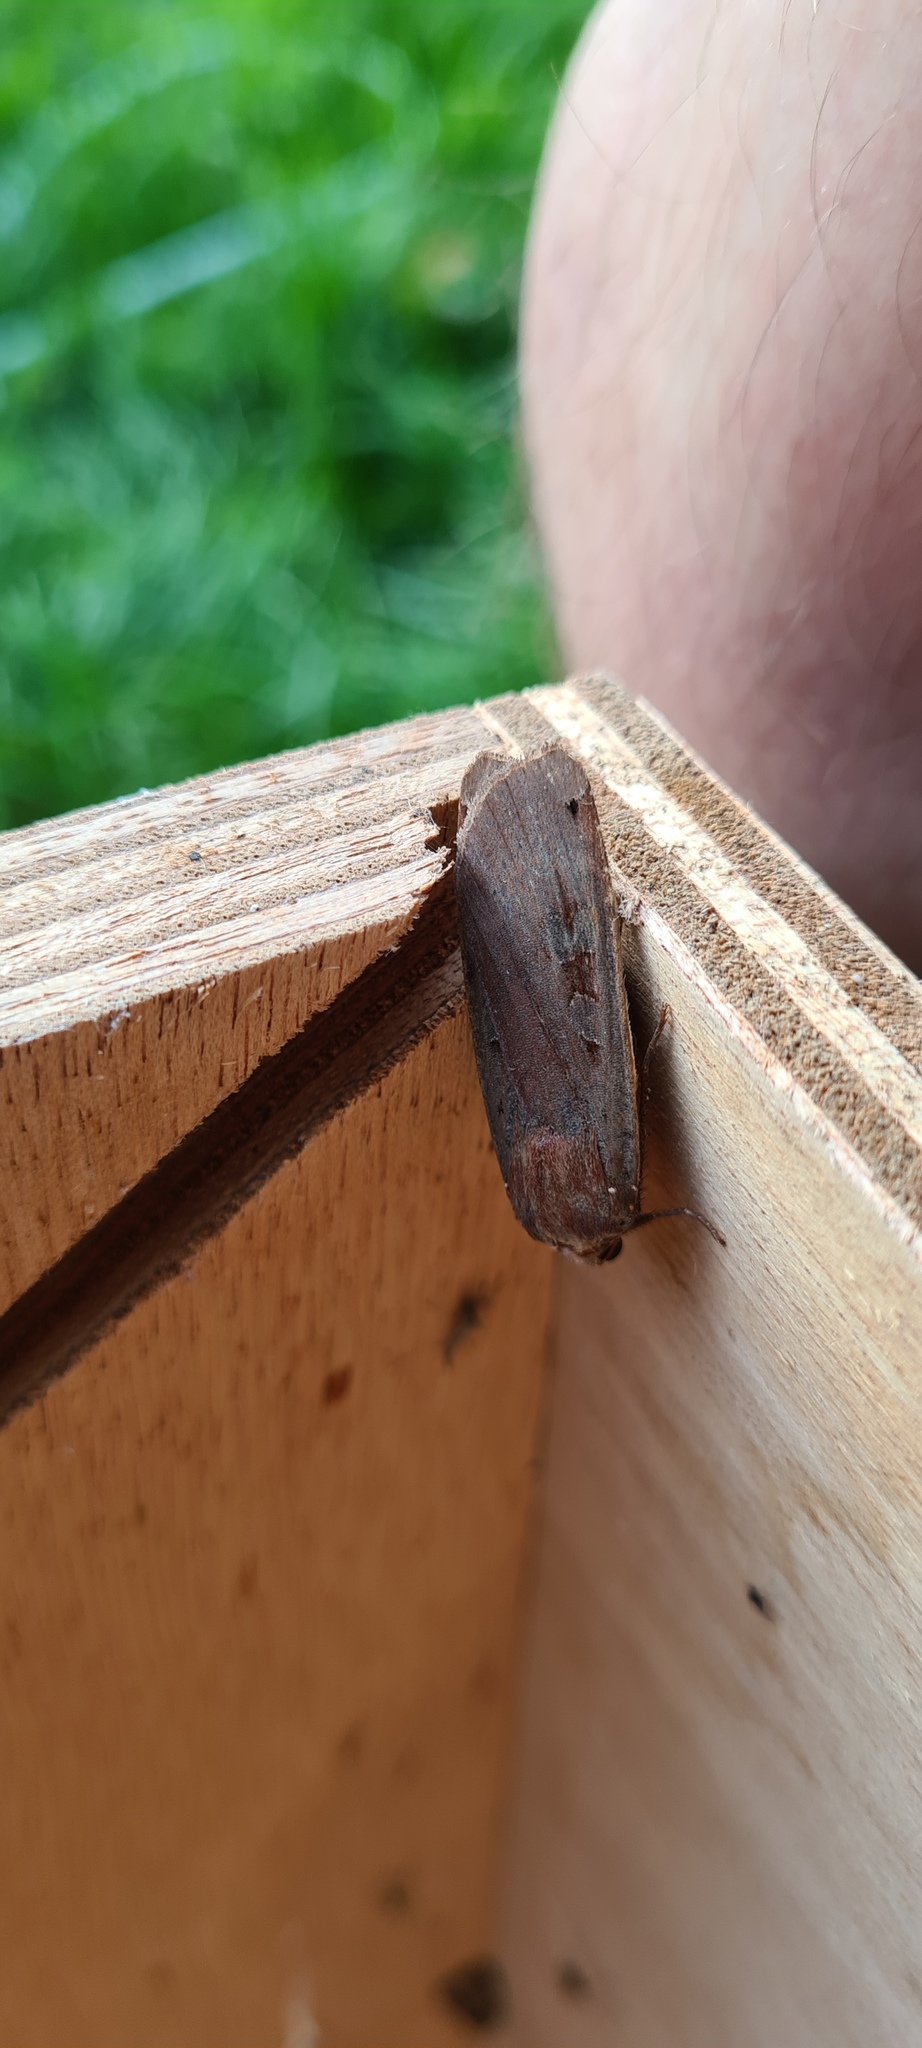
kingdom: Animalia
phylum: Arthropoda
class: Insecta
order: Lepidoptera
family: Noctuidae
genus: Noctua
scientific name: Noctua pronuba
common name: Large yellow underwing
